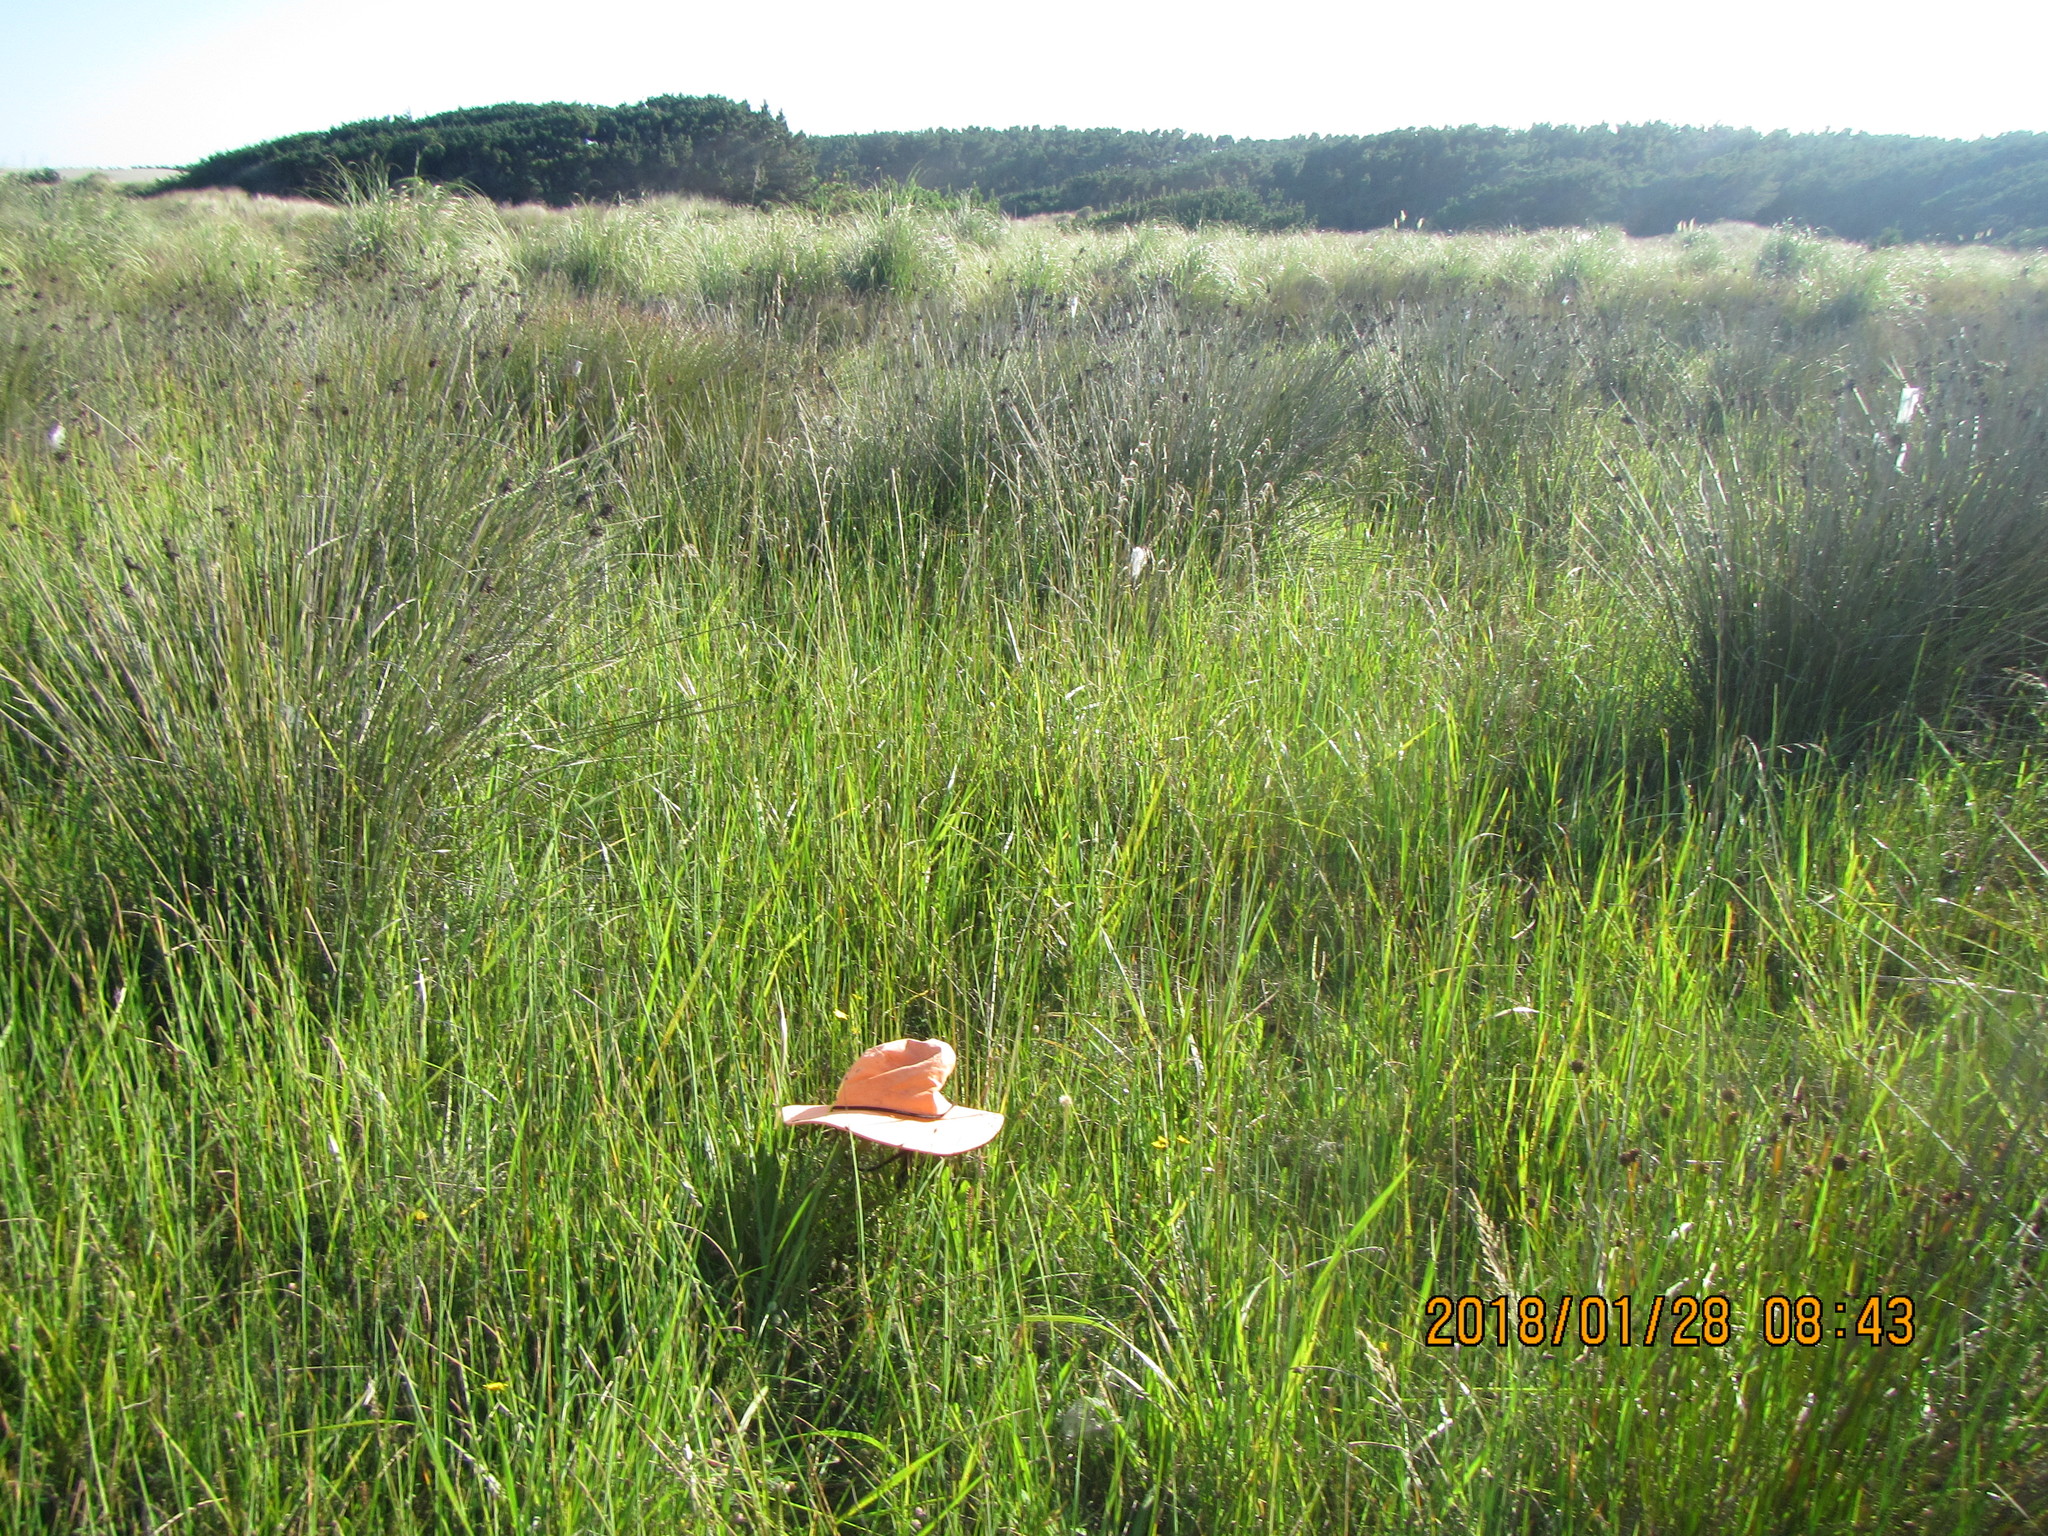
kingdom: Plantae
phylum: Tracheophyta
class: Magnoliopsida
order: Lamiales
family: Plantaginaceae
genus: Plantago
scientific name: Plantago australis
